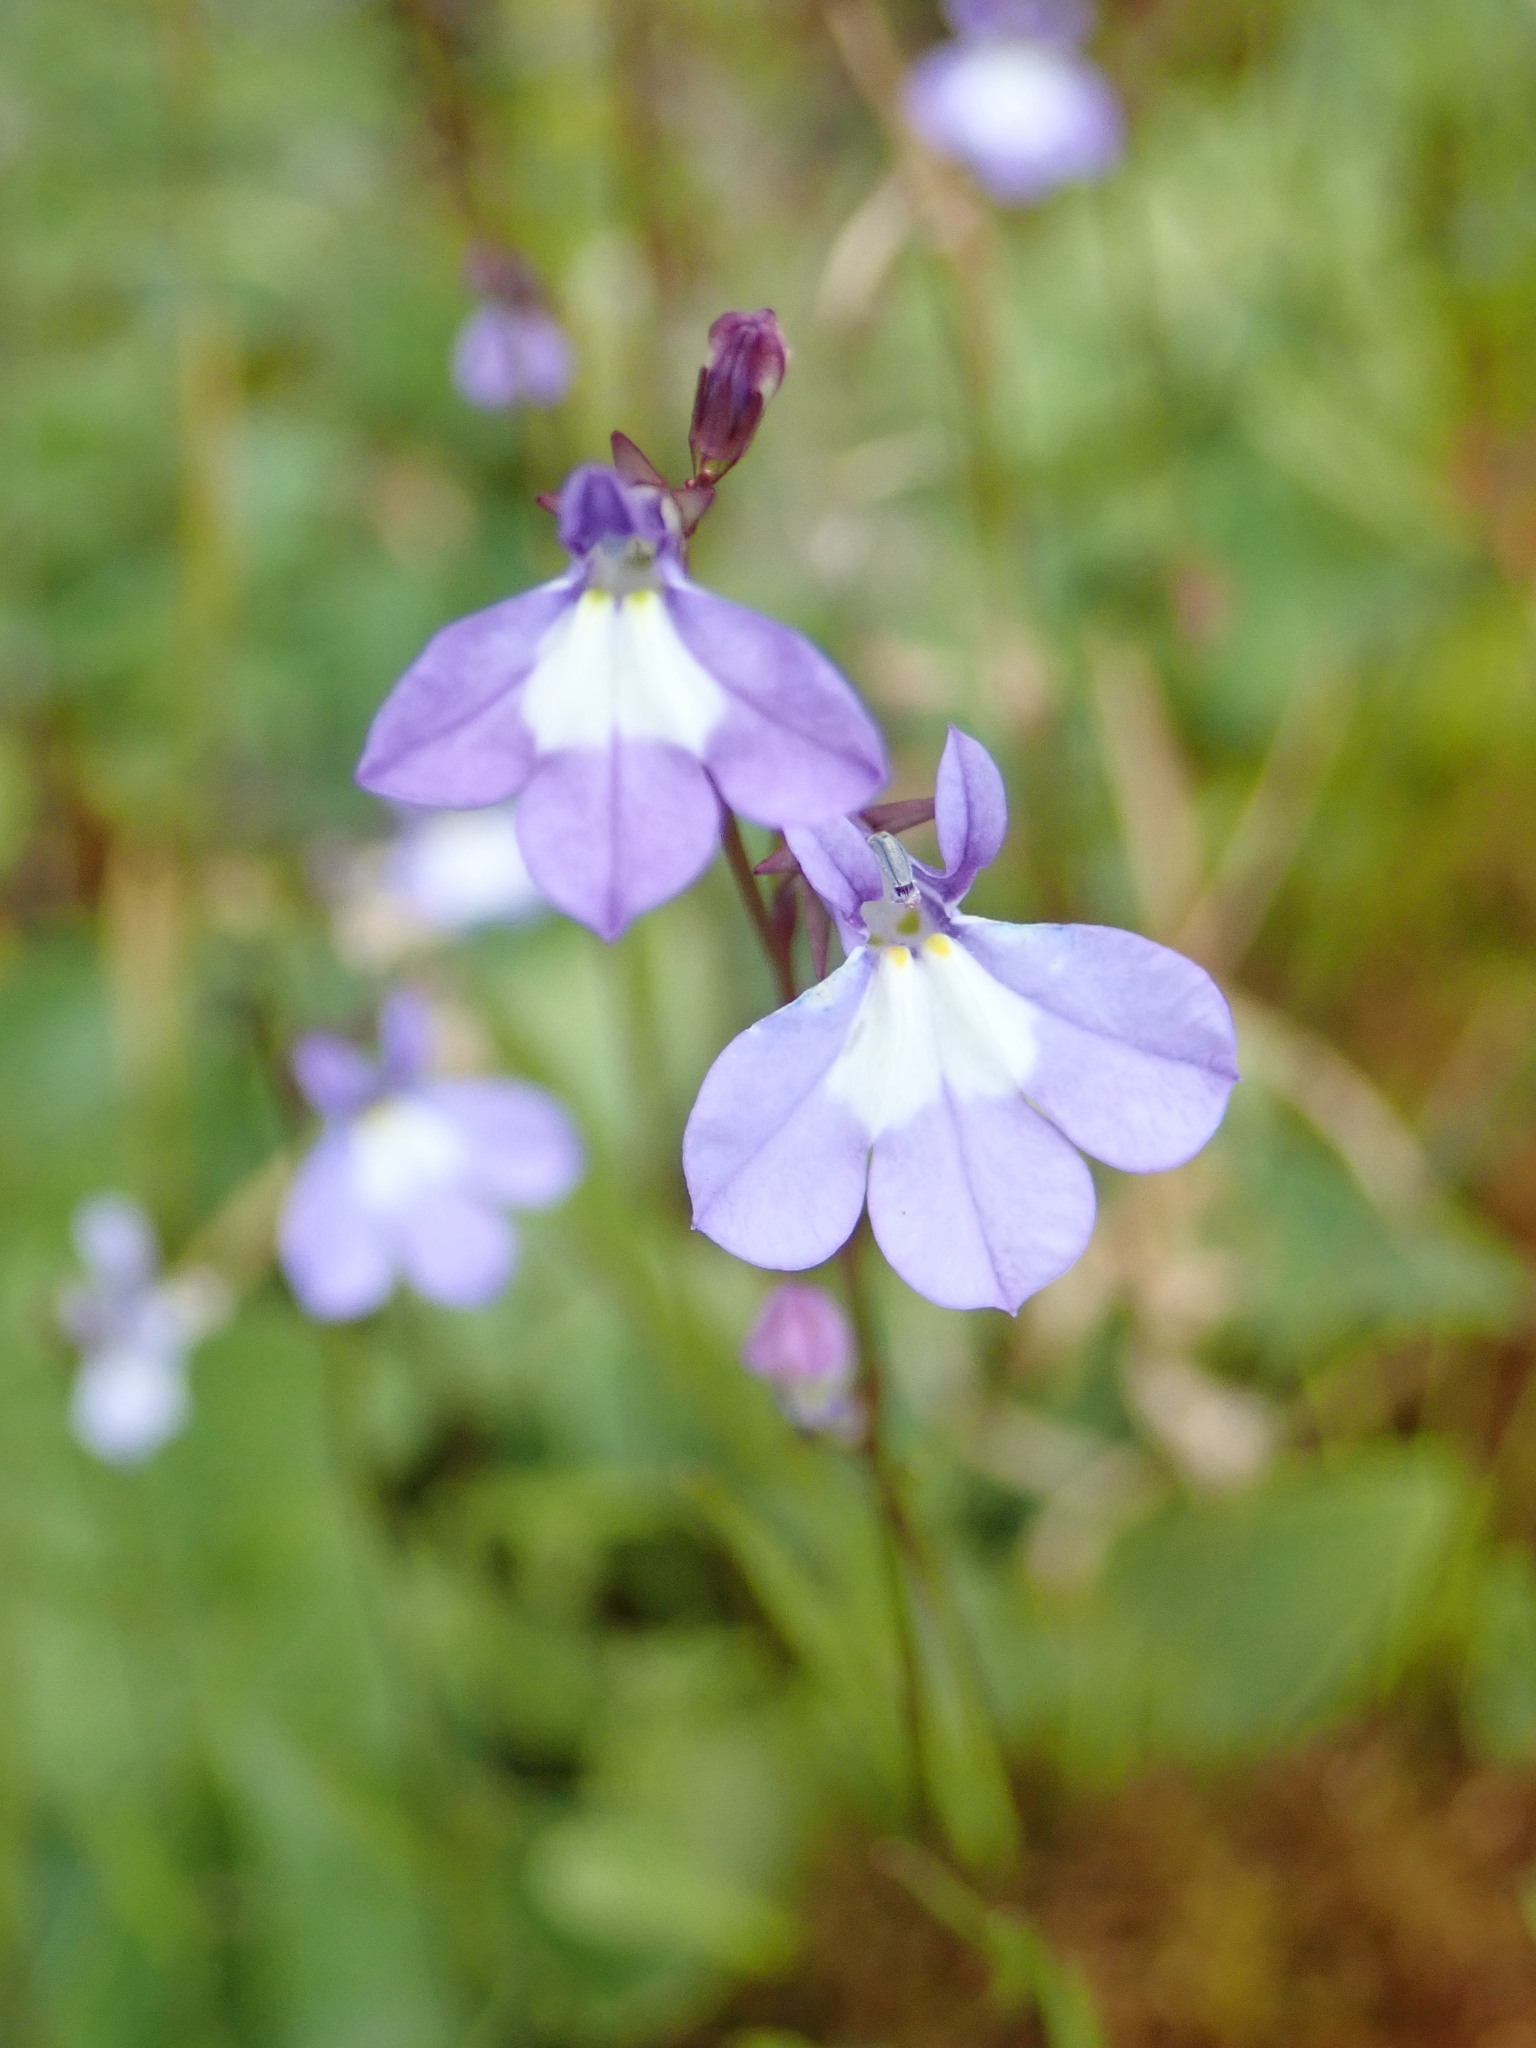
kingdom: Plantae
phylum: Tracheophyta
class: Magnoliopsida
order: Asterales
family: Campanulaceae
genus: Lobelia
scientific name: Lobelia kalmii
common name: Kalm's lobelia
